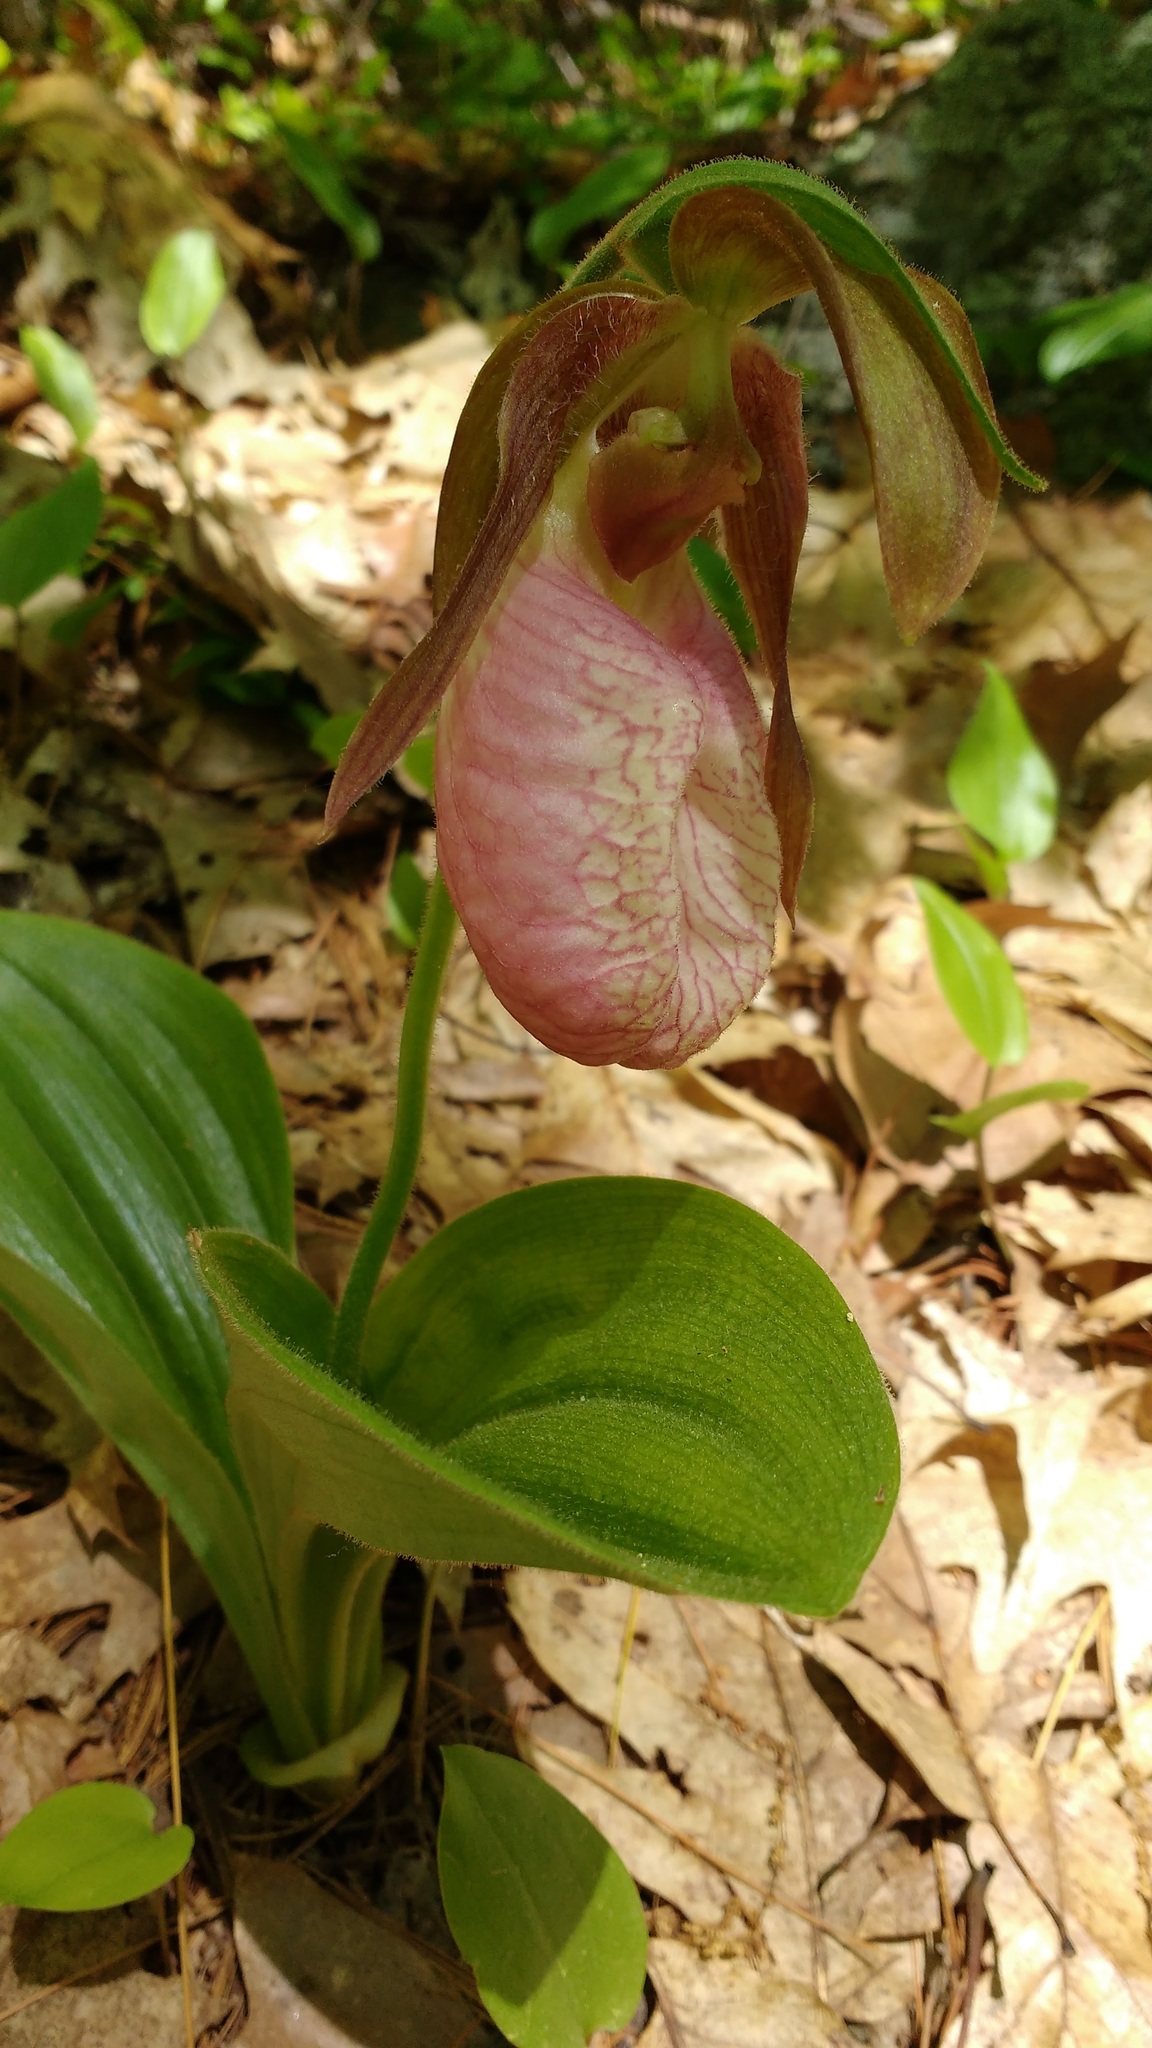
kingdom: Plantae
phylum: Tracheophyta
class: Liliopsida
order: Asparagales
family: Orchidaceae
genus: Cypripedium
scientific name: Cypripedium acaule
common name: Pink lady's-slipper
